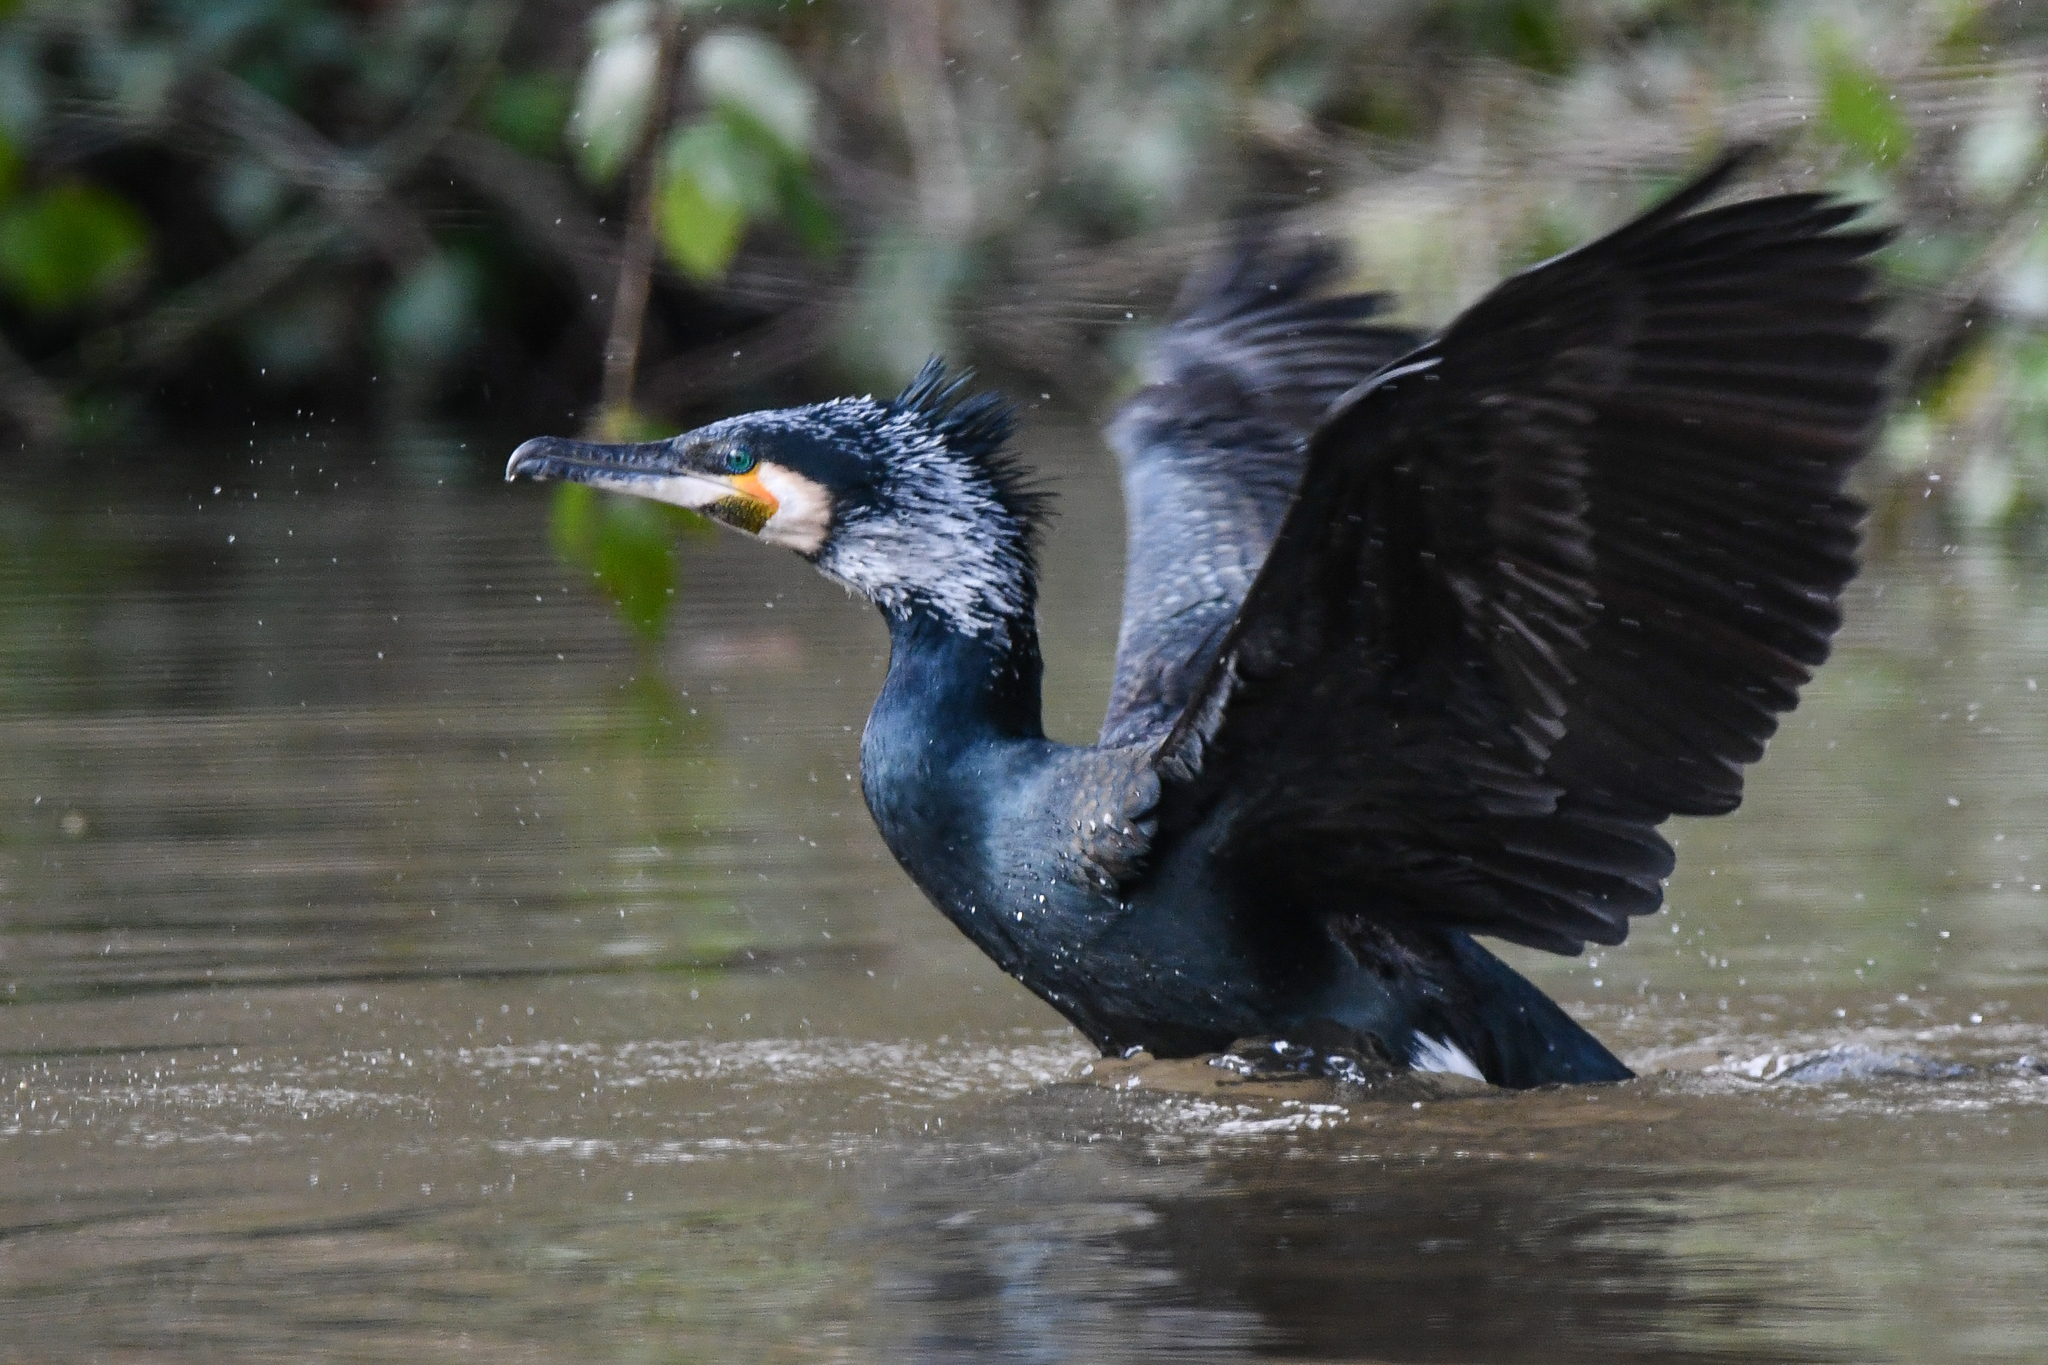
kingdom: Animalia
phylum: Chordata
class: Aves
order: Suliformes
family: Phalacrocoracidae
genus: Phalacrocorax
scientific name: Phalacrocorax carbo
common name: Great cormorant
